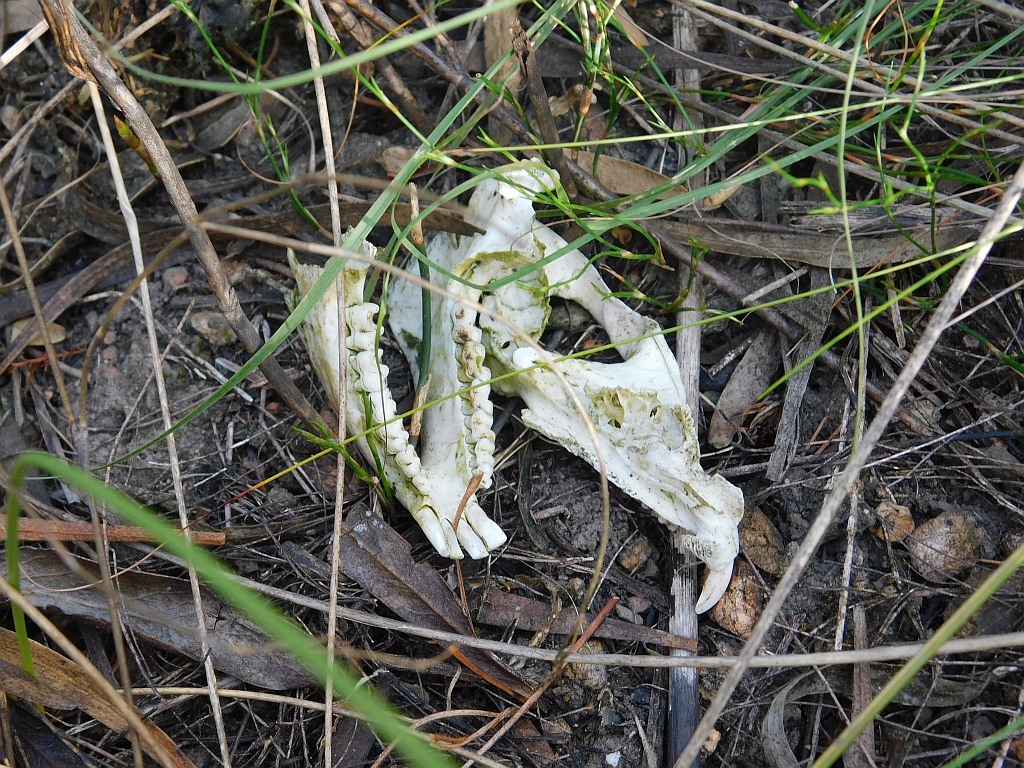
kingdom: Animalia
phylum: Chordata
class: Mammalia
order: Hyracoidea
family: Procaviidae
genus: Procavia
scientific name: Procavia capensis
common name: Rock hyrax
